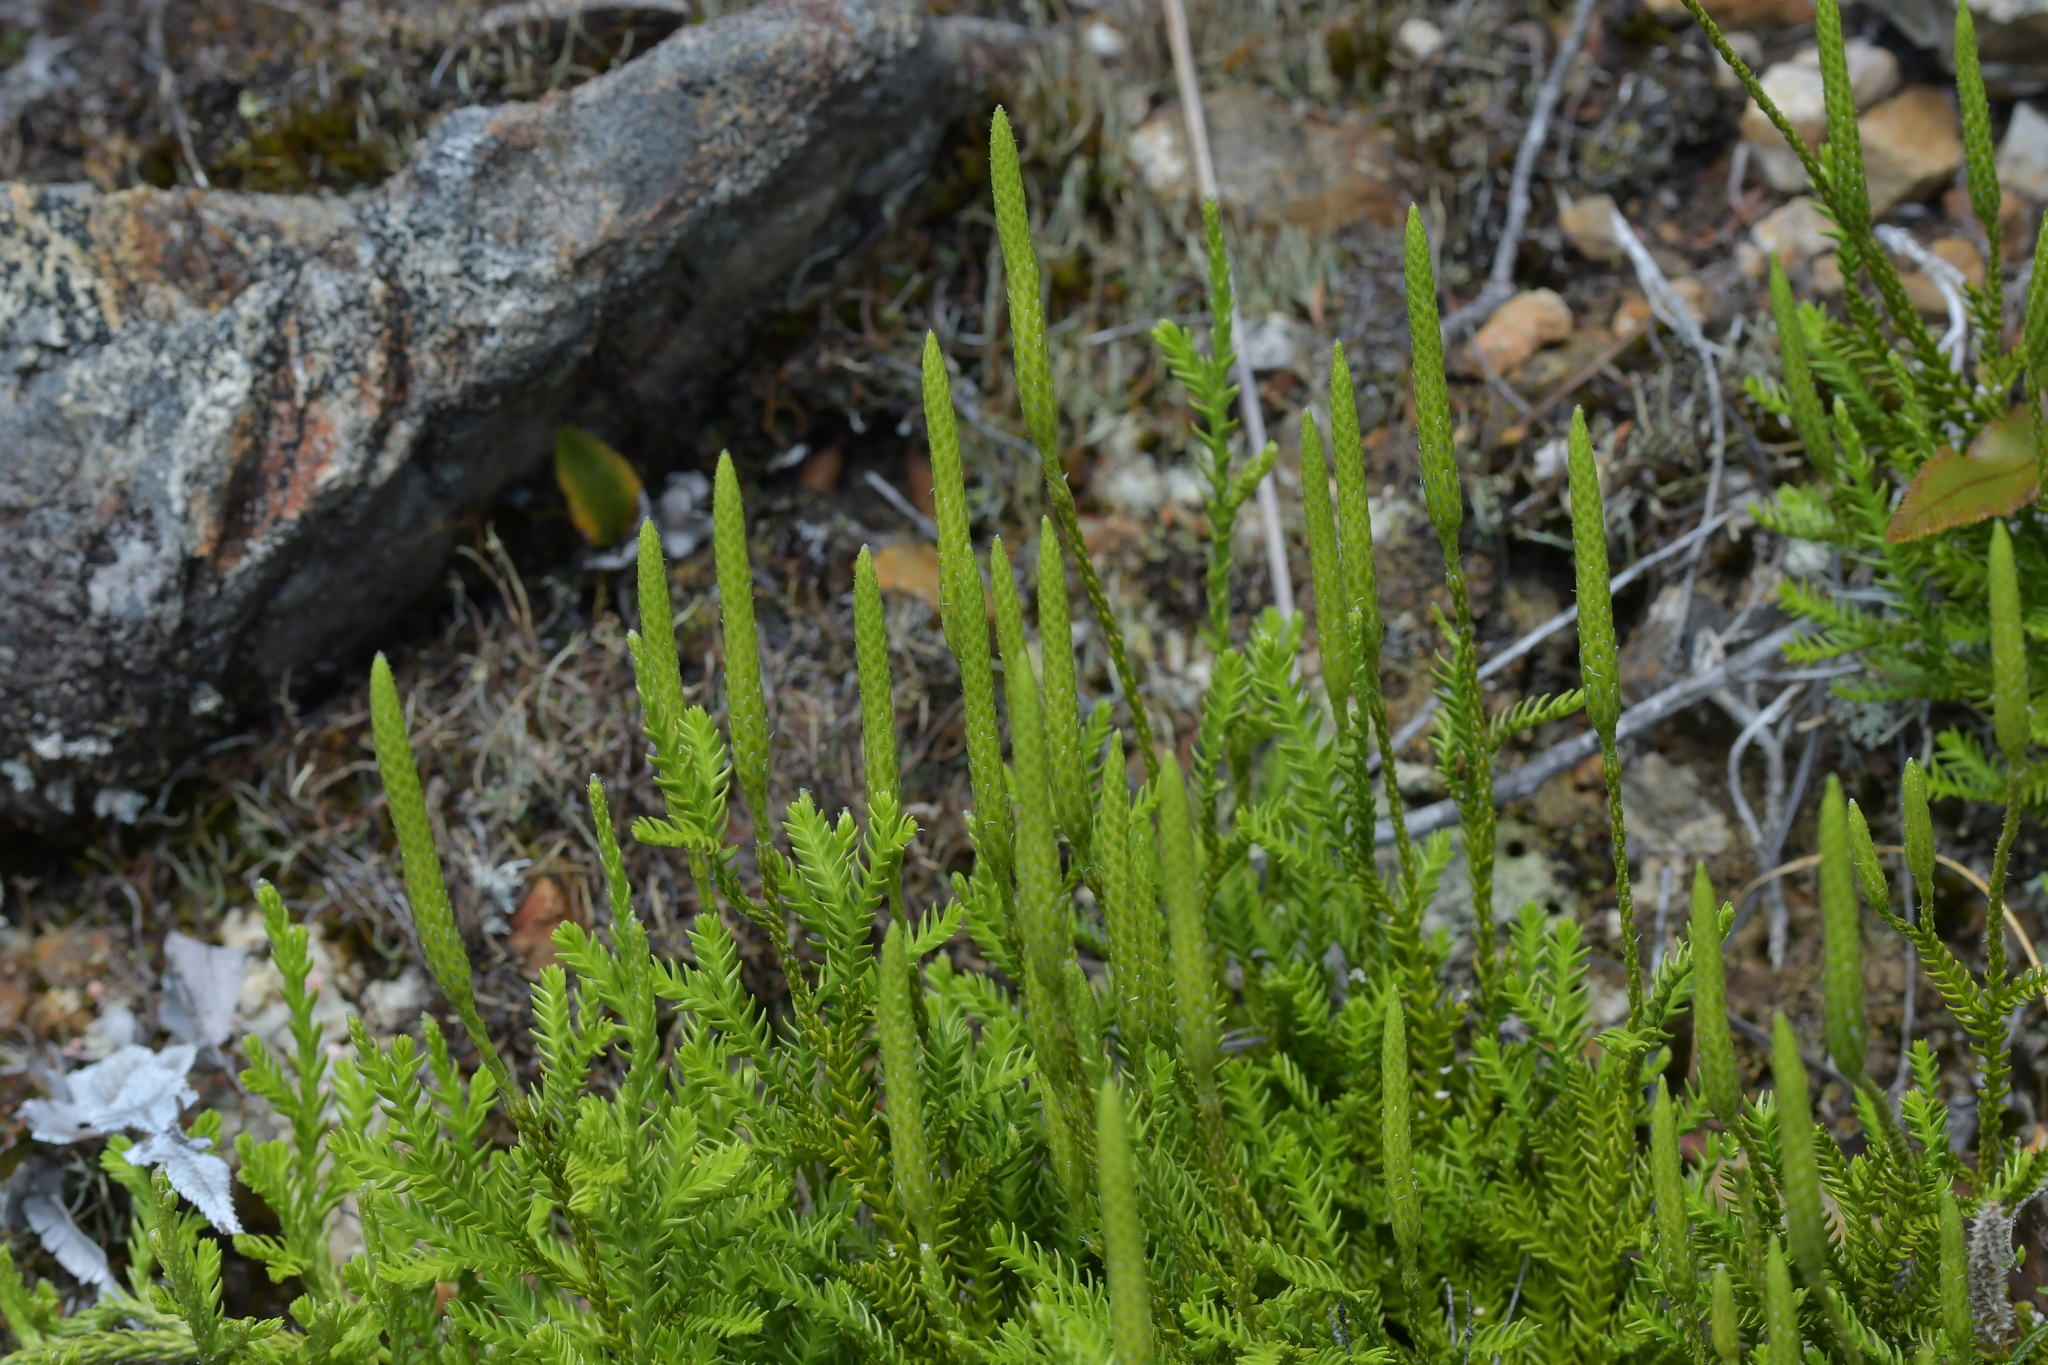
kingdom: Plantae
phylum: Tracheophyta
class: Lycopodiopsida
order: Lycopodiales
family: Lycopodiaceae
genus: Diphasium
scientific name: Diphasium scariosum
